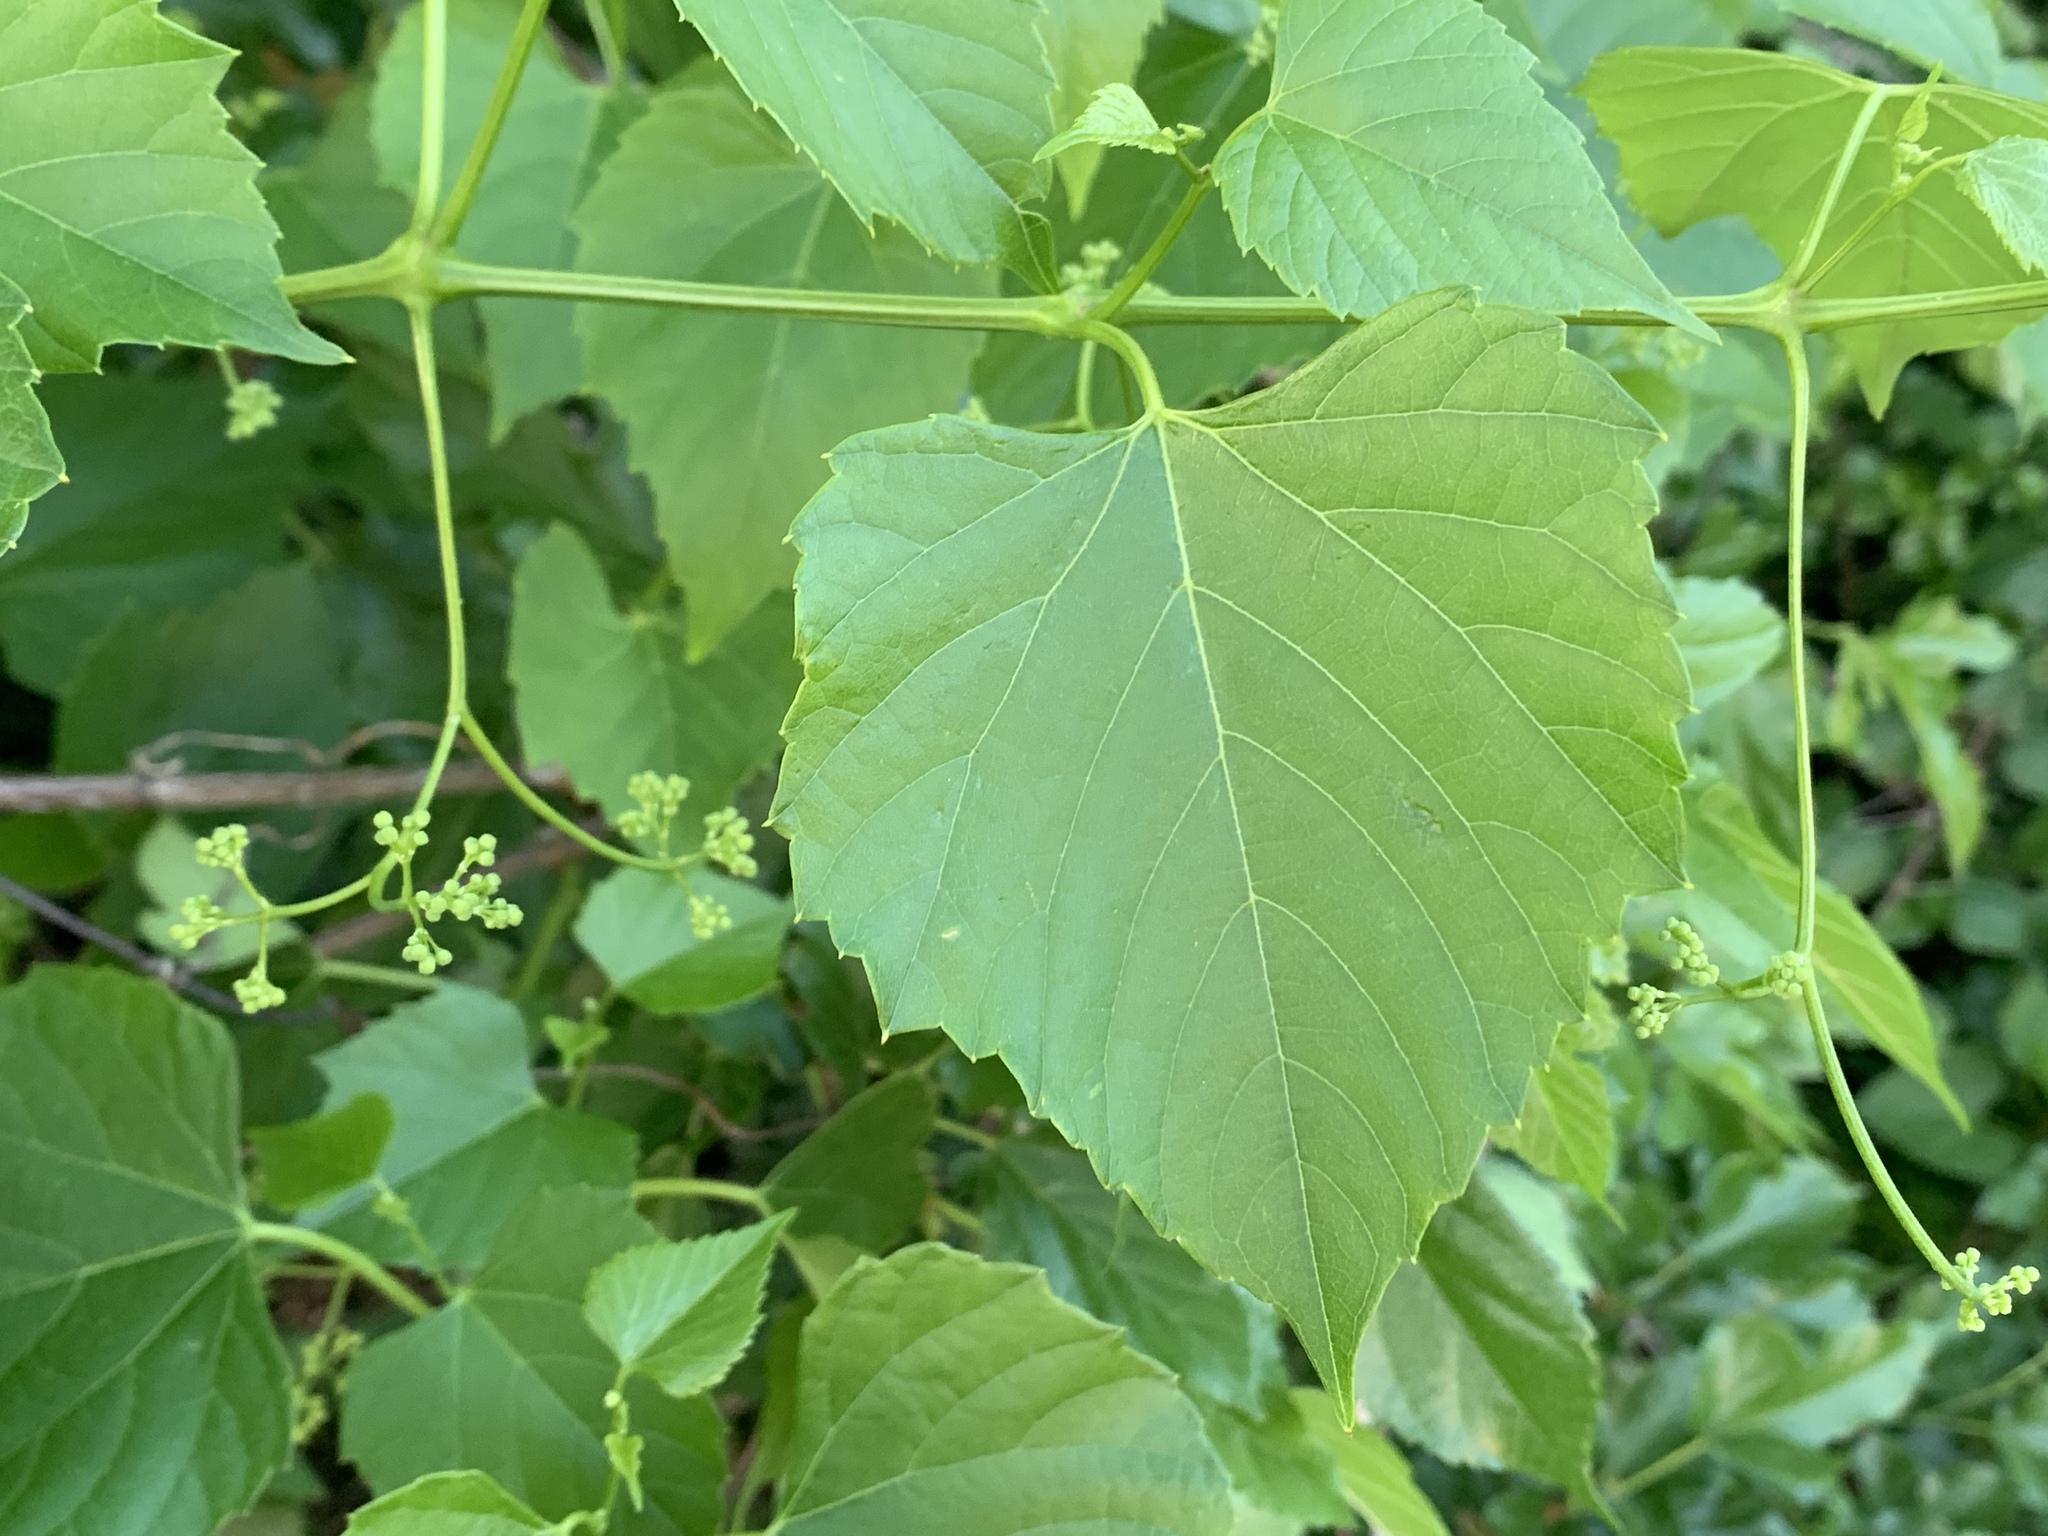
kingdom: Plantae
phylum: Tracheophyta
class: Magnoliopsida
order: Vitales
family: Vitaceae
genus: Ampelopsis
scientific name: Ampelopsis cordata
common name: Heart-leaf ampelopsis
